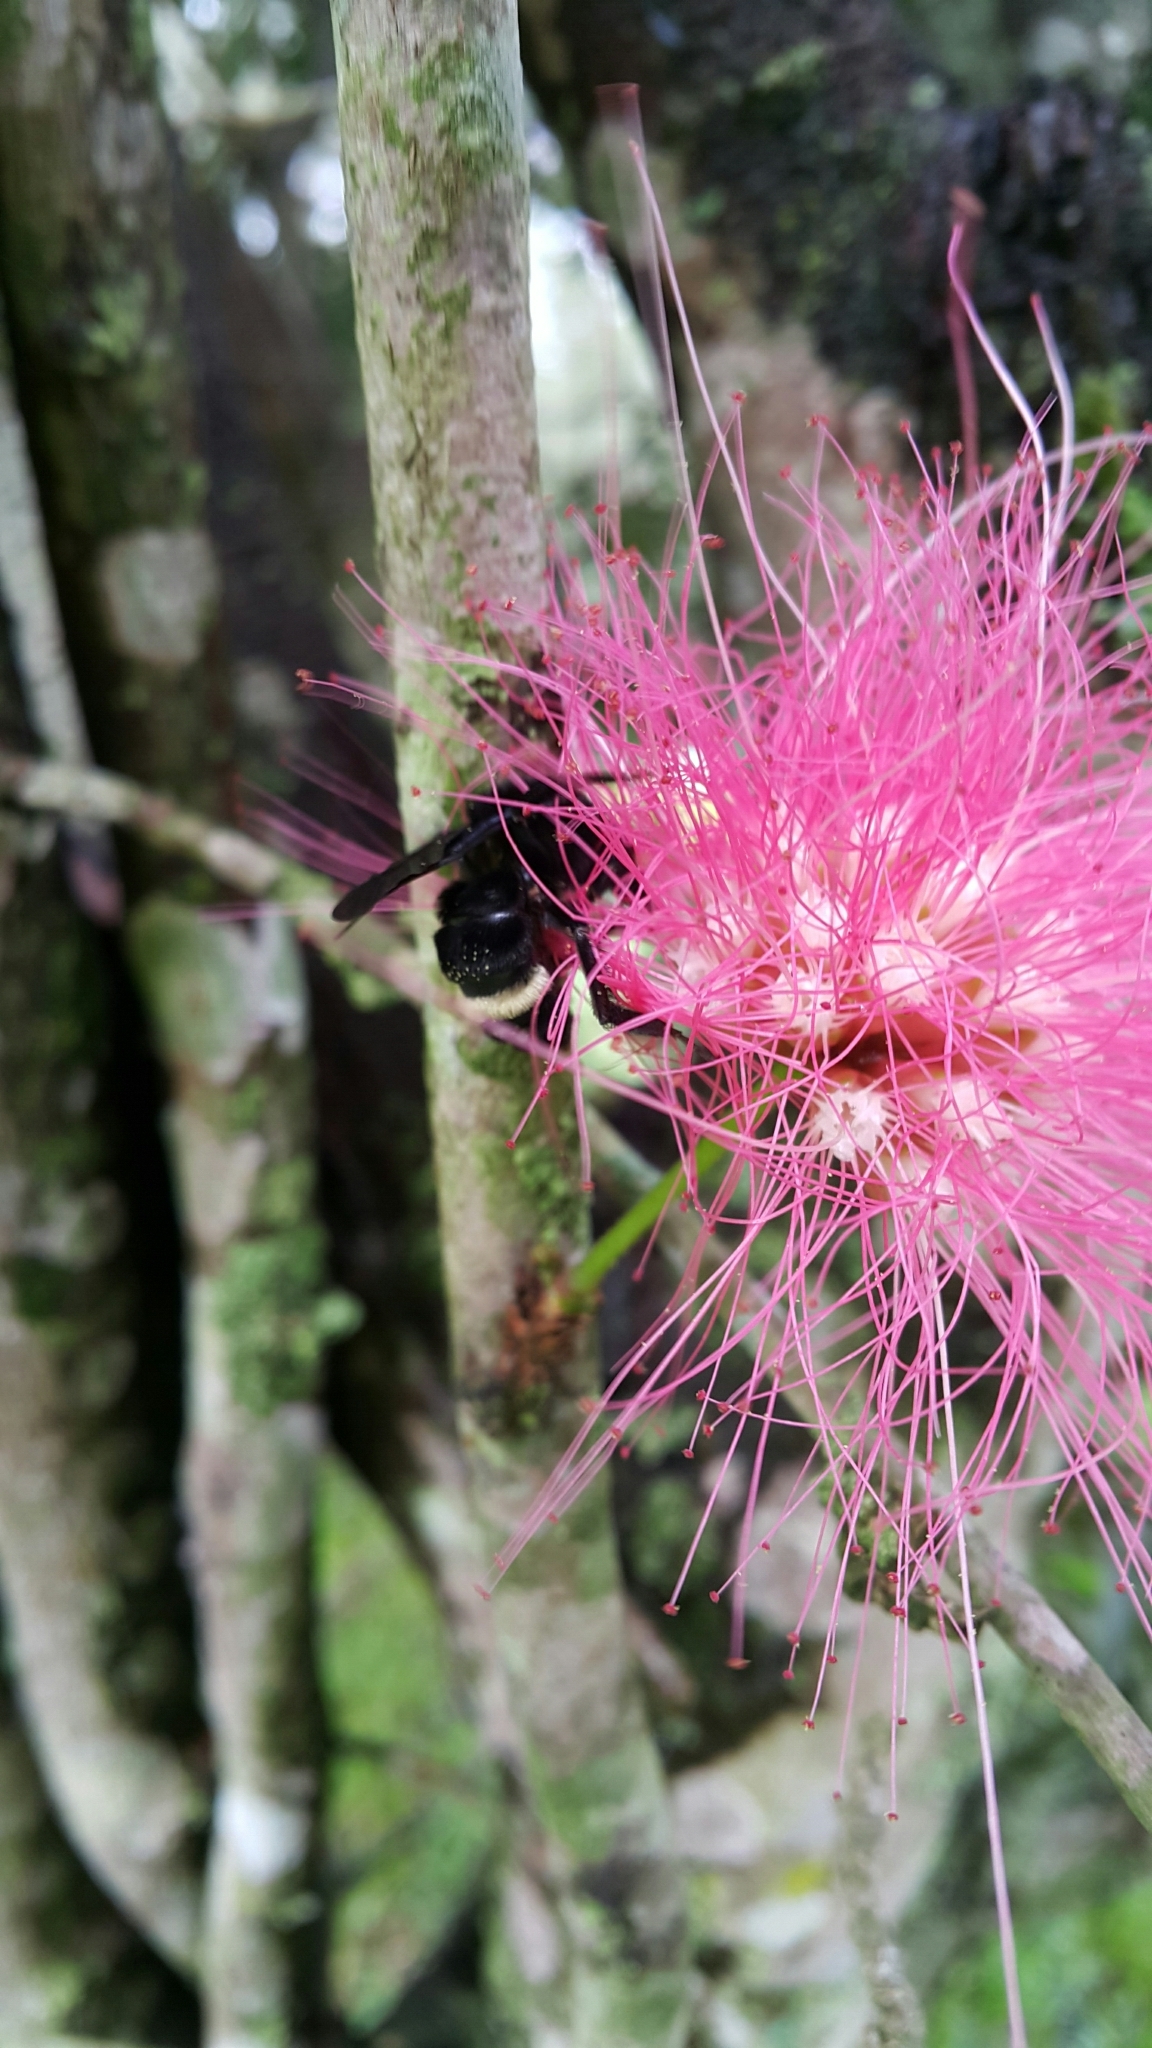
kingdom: Animalia
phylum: Arthropoda
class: Insecta
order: Hymenoptera
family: Apidae
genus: Bombus
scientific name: Bombus mexicanus
